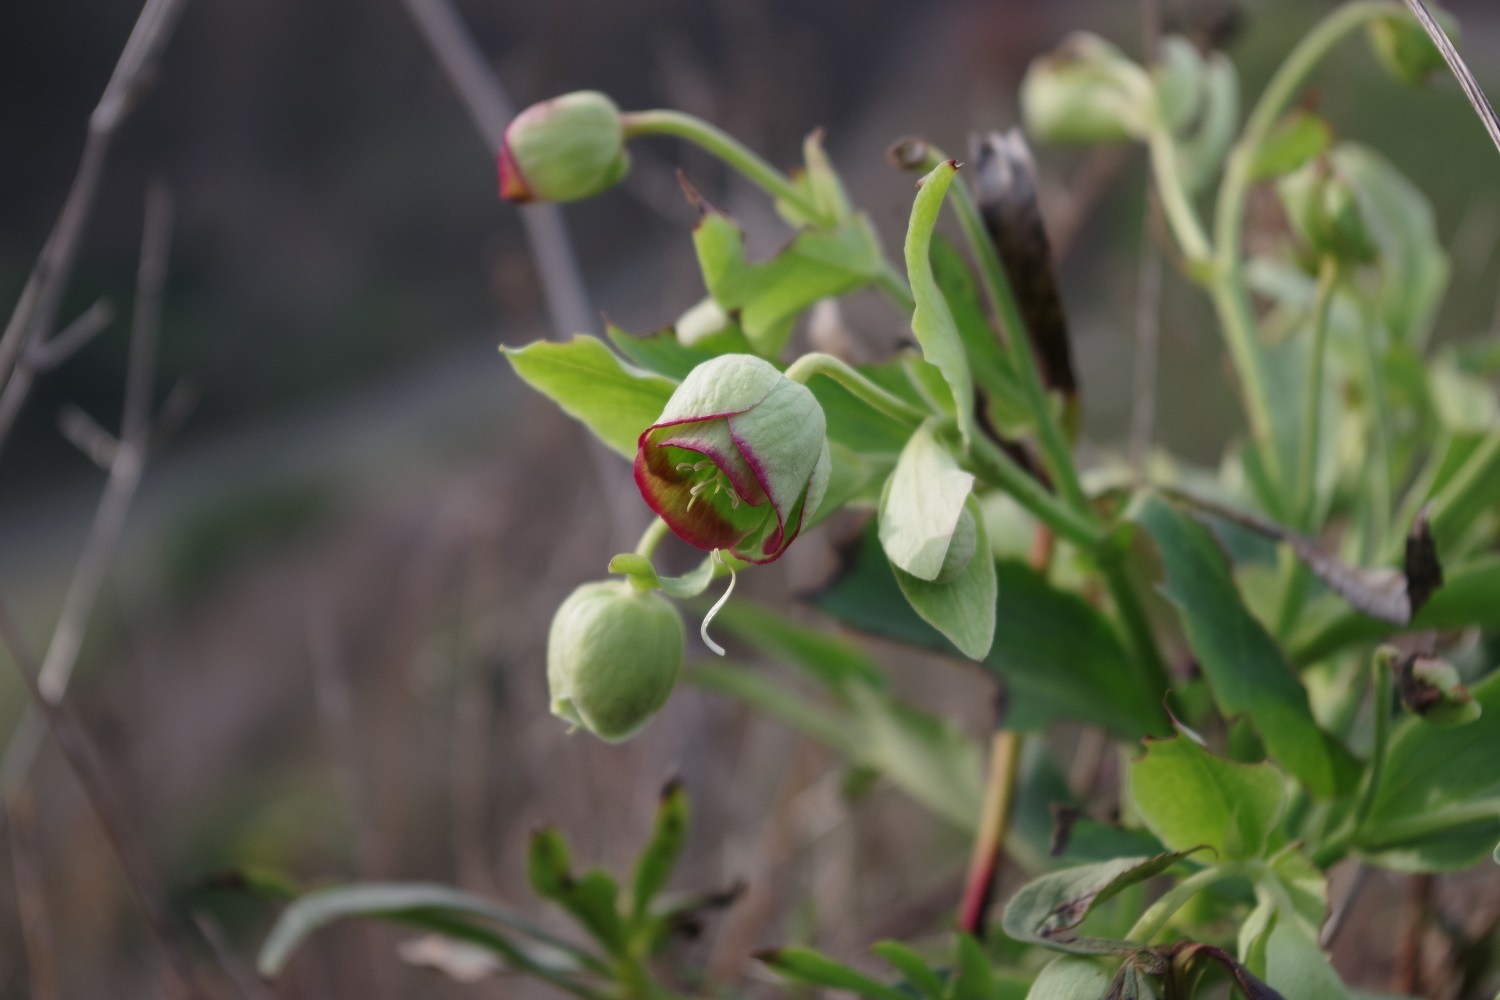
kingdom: Plantae
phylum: Tracheophyta
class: Magnoliopsida
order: Ranunculales
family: Ranunculaceae
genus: Helleborus
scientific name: Helleborus foetidus
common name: Stinking hellebore
